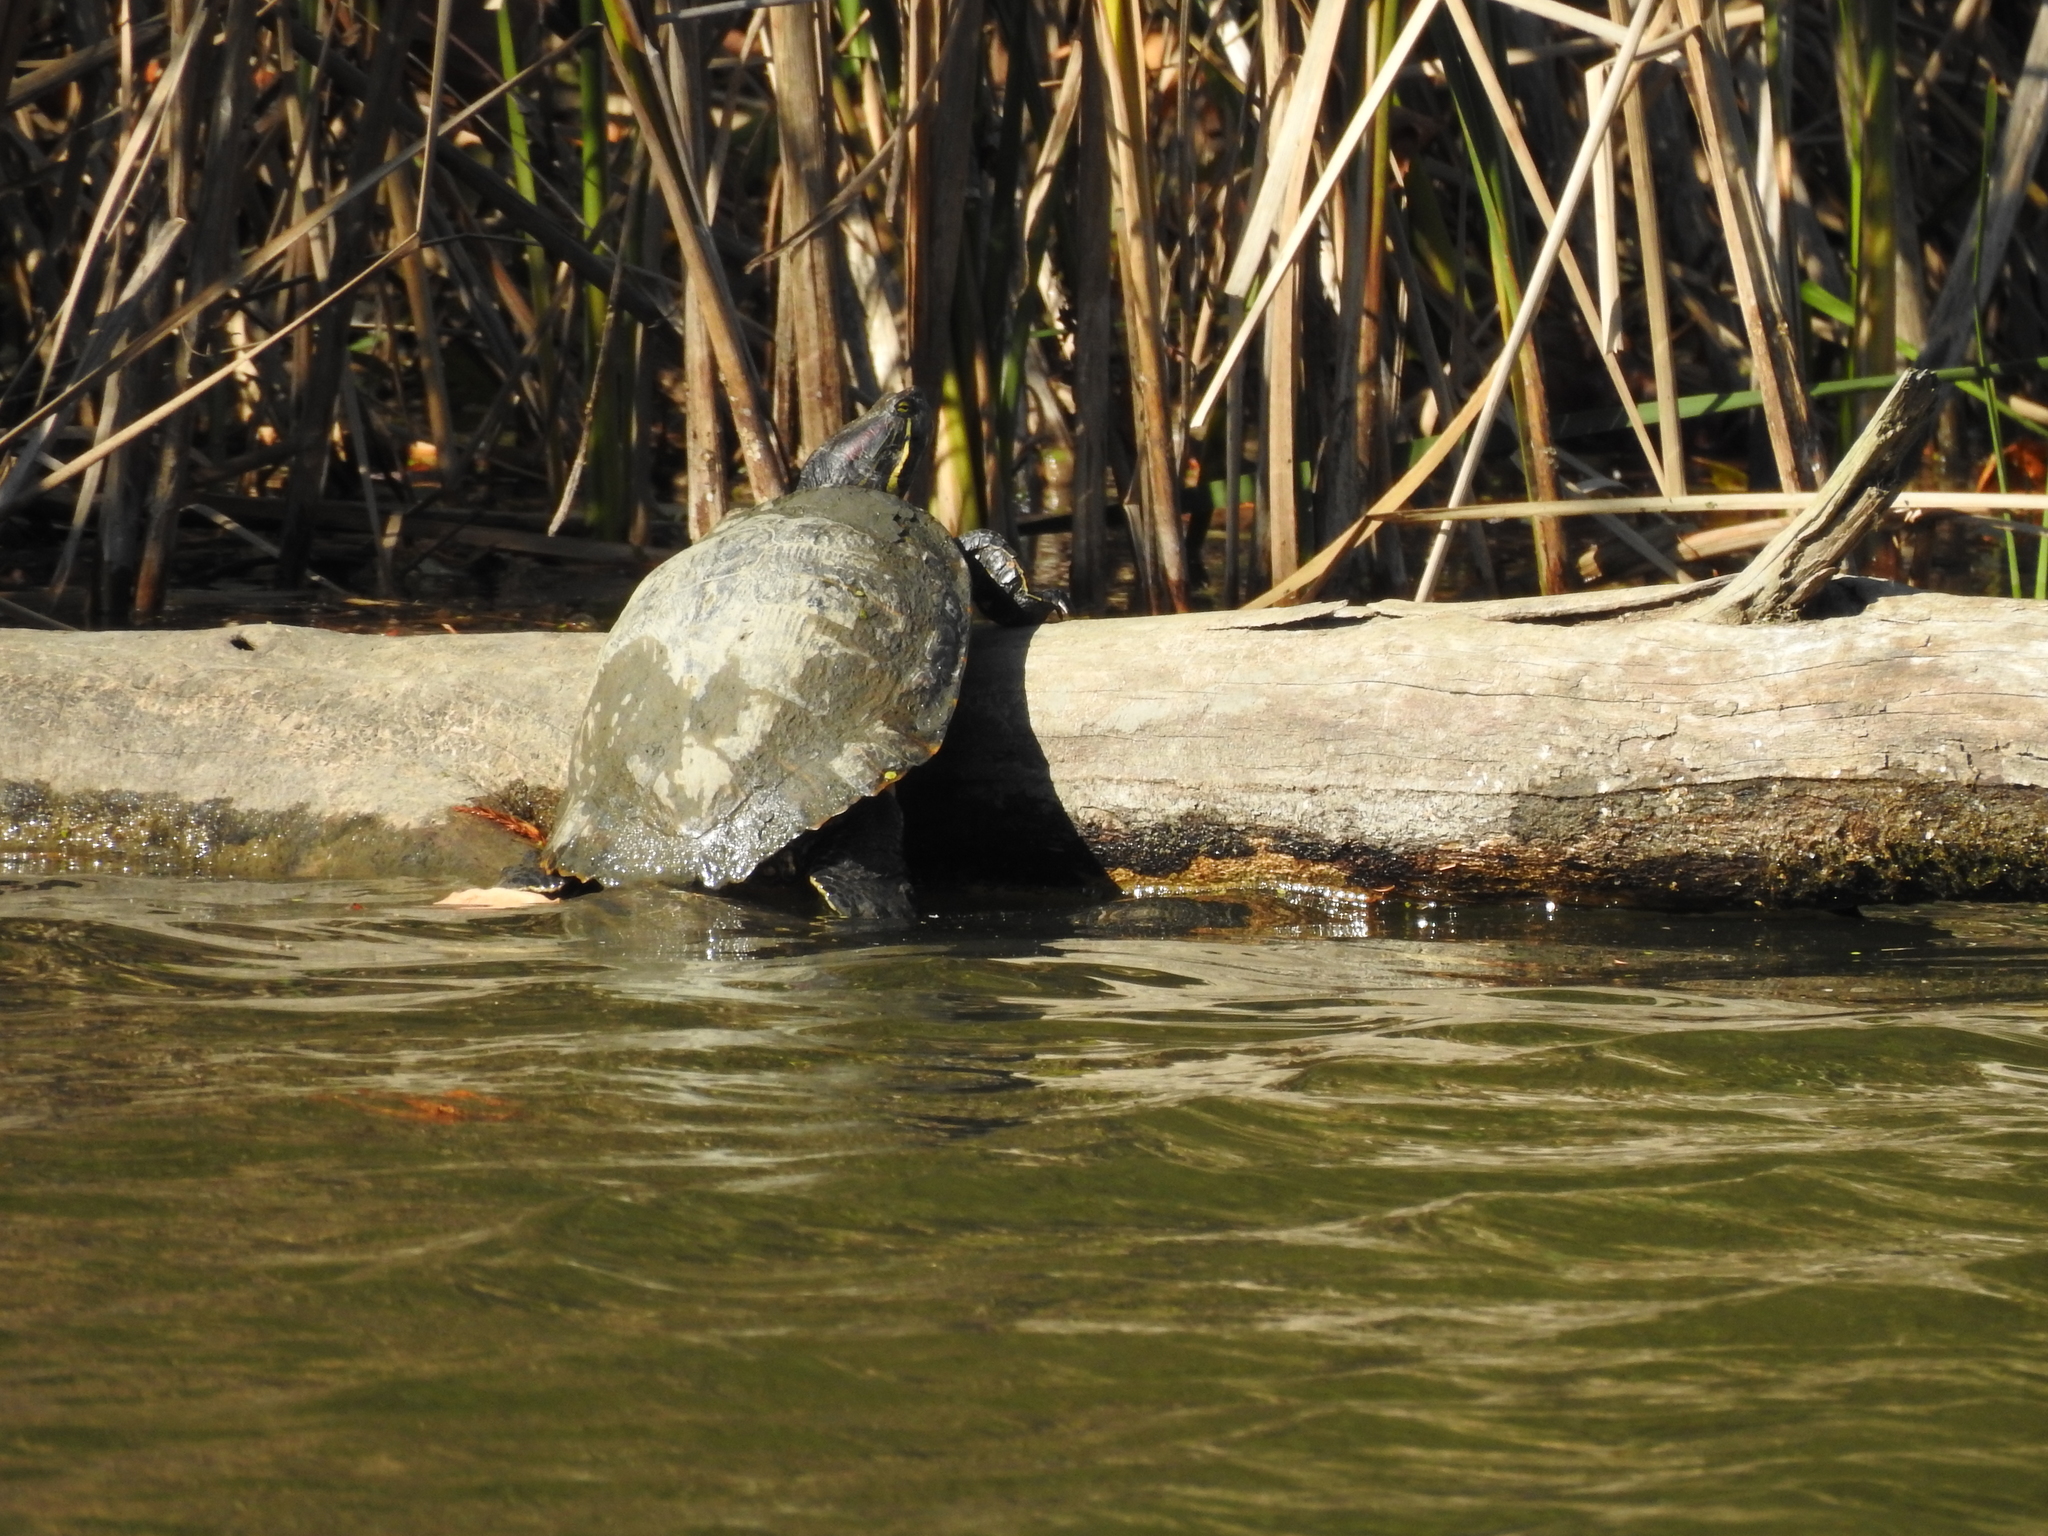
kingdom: Animalia
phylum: Chordata
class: Testudines
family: Emydidae
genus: Trachemys
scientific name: Trachemys scripta
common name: Slider
